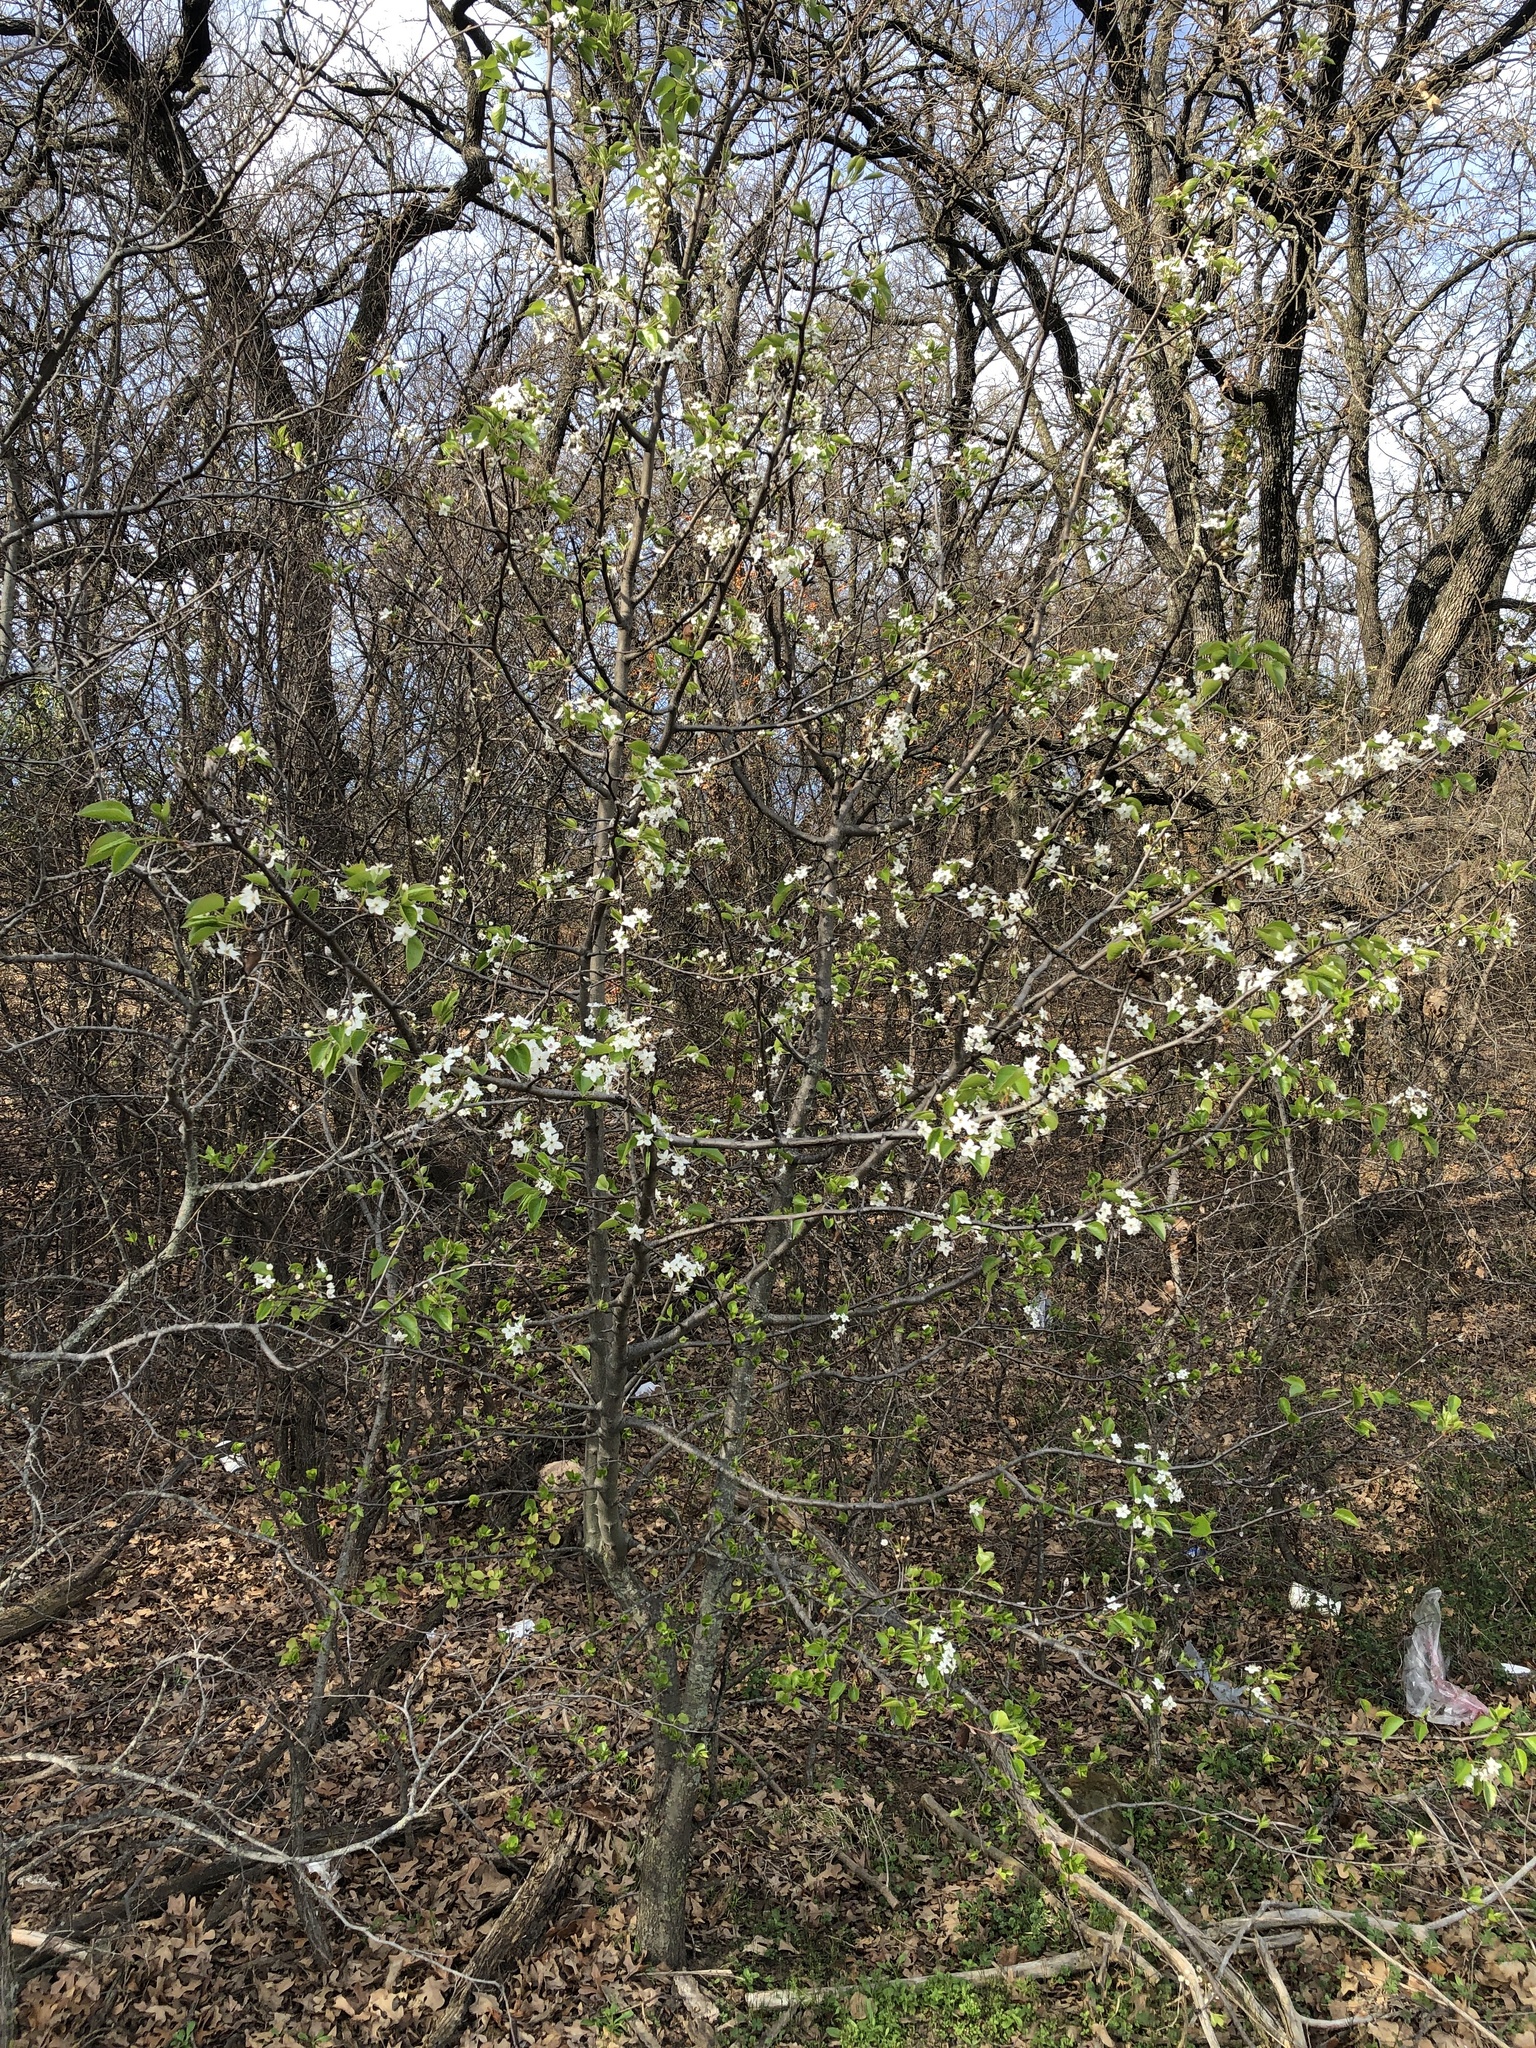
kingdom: Plantae
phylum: Tracheophyta
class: Magnoliopsida
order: Rosales
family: Rosaceae
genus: Pyrus
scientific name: Pyrus calleryana
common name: Callery pear
